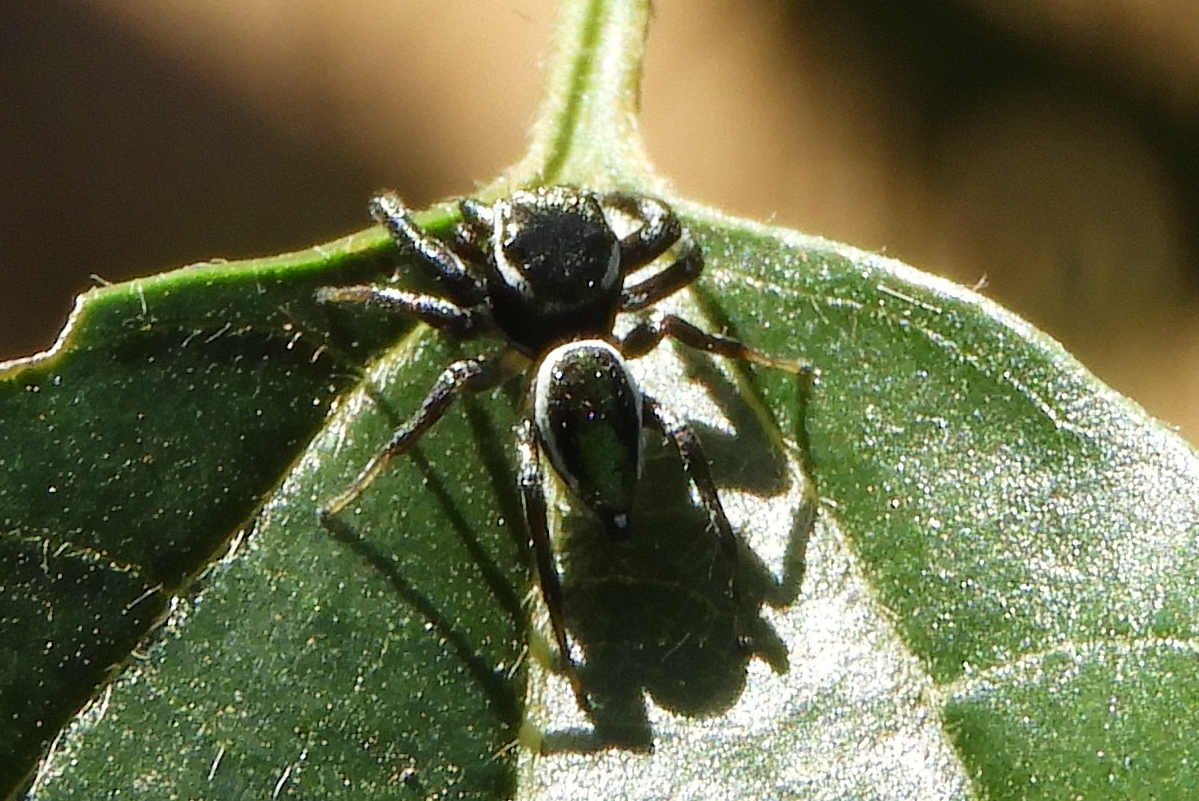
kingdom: Animalia
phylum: Arthropoda
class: Arachnida
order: Araneae
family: Salticidae
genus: Messua
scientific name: Messua limbata
